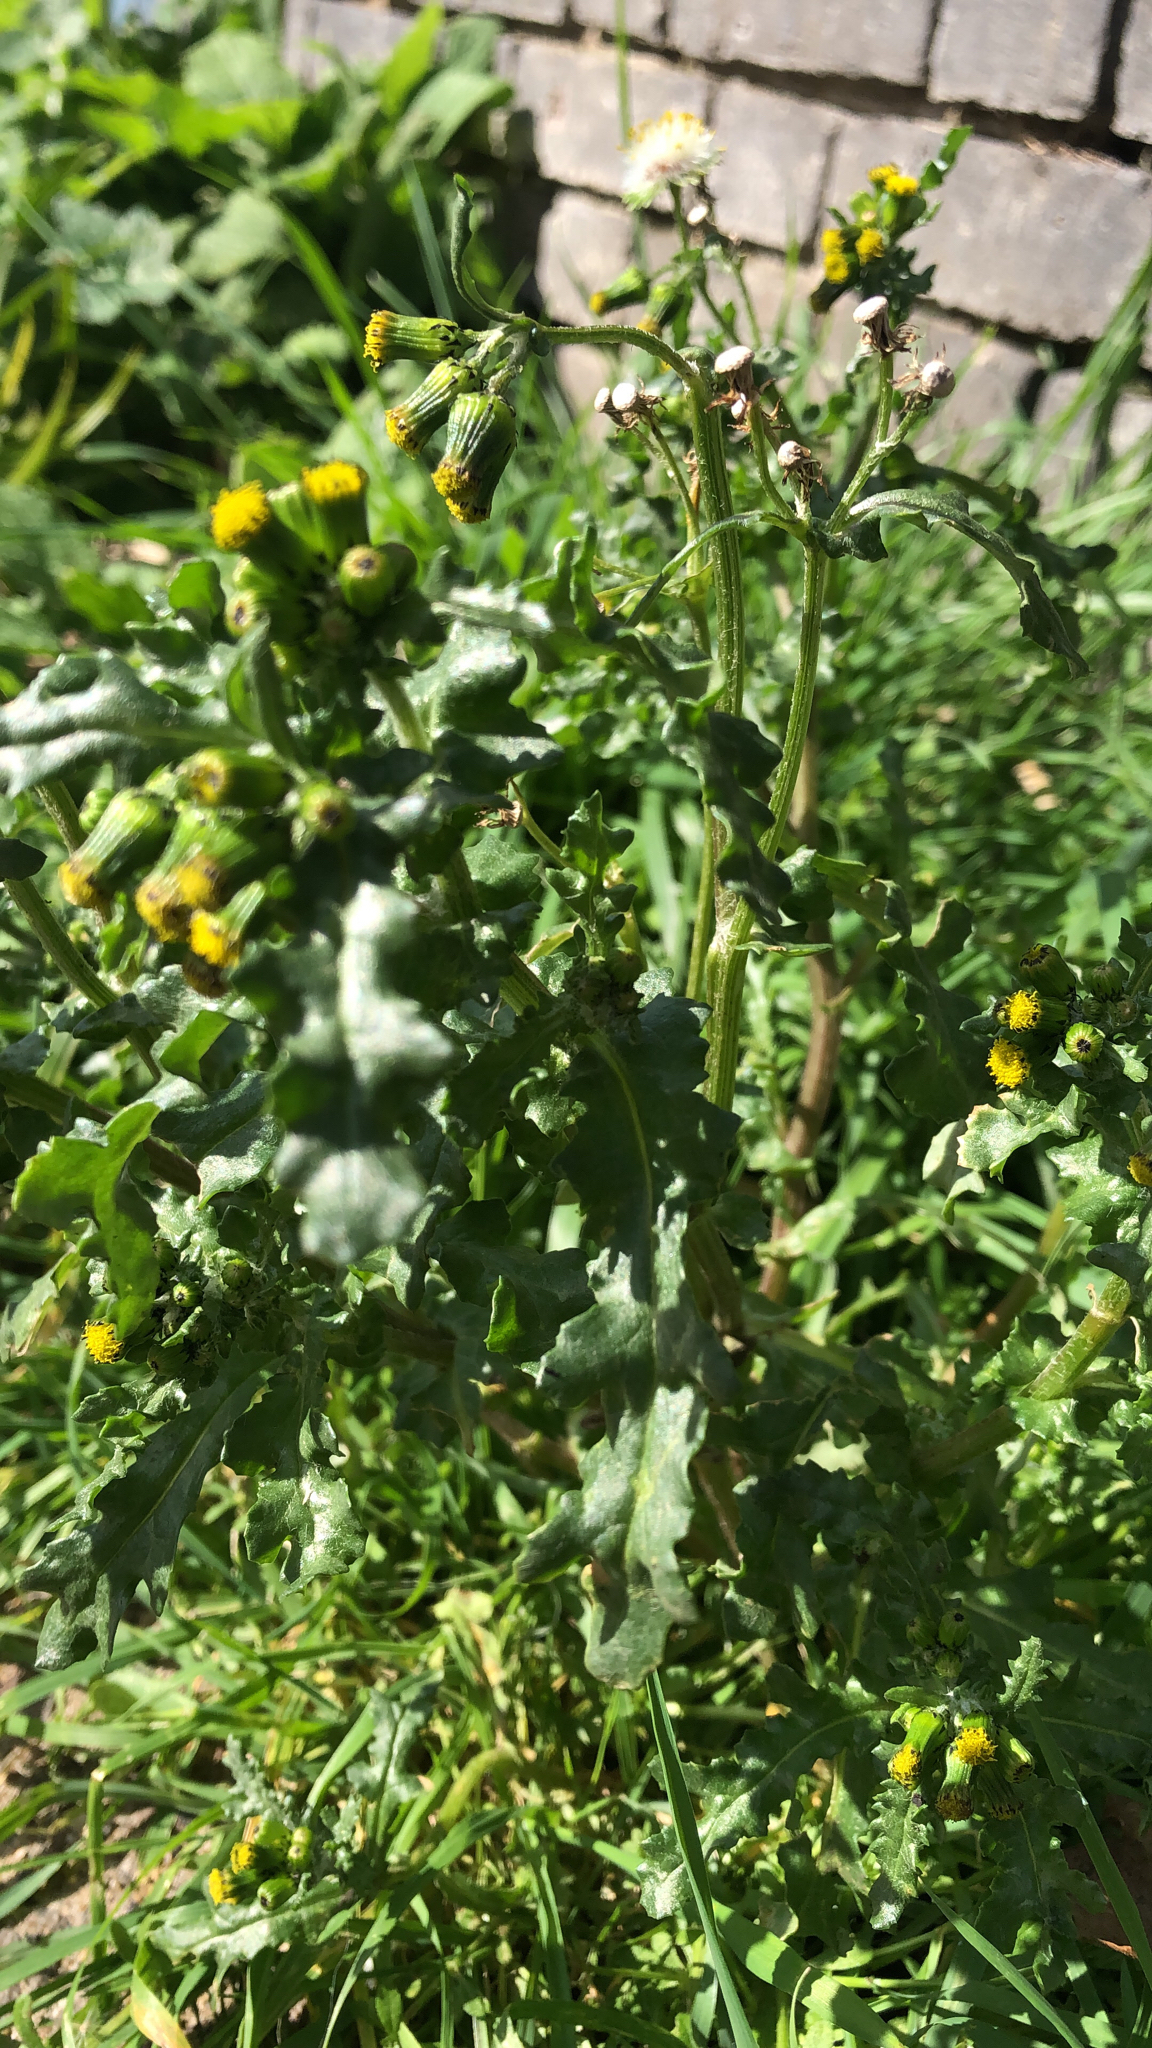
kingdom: Plantae
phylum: Tracheophyta
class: Magnoliopsida
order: Asterales
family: Asteraceae
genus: Senecio
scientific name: Senecio vulgaris
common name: Old-man-in-the-spring
